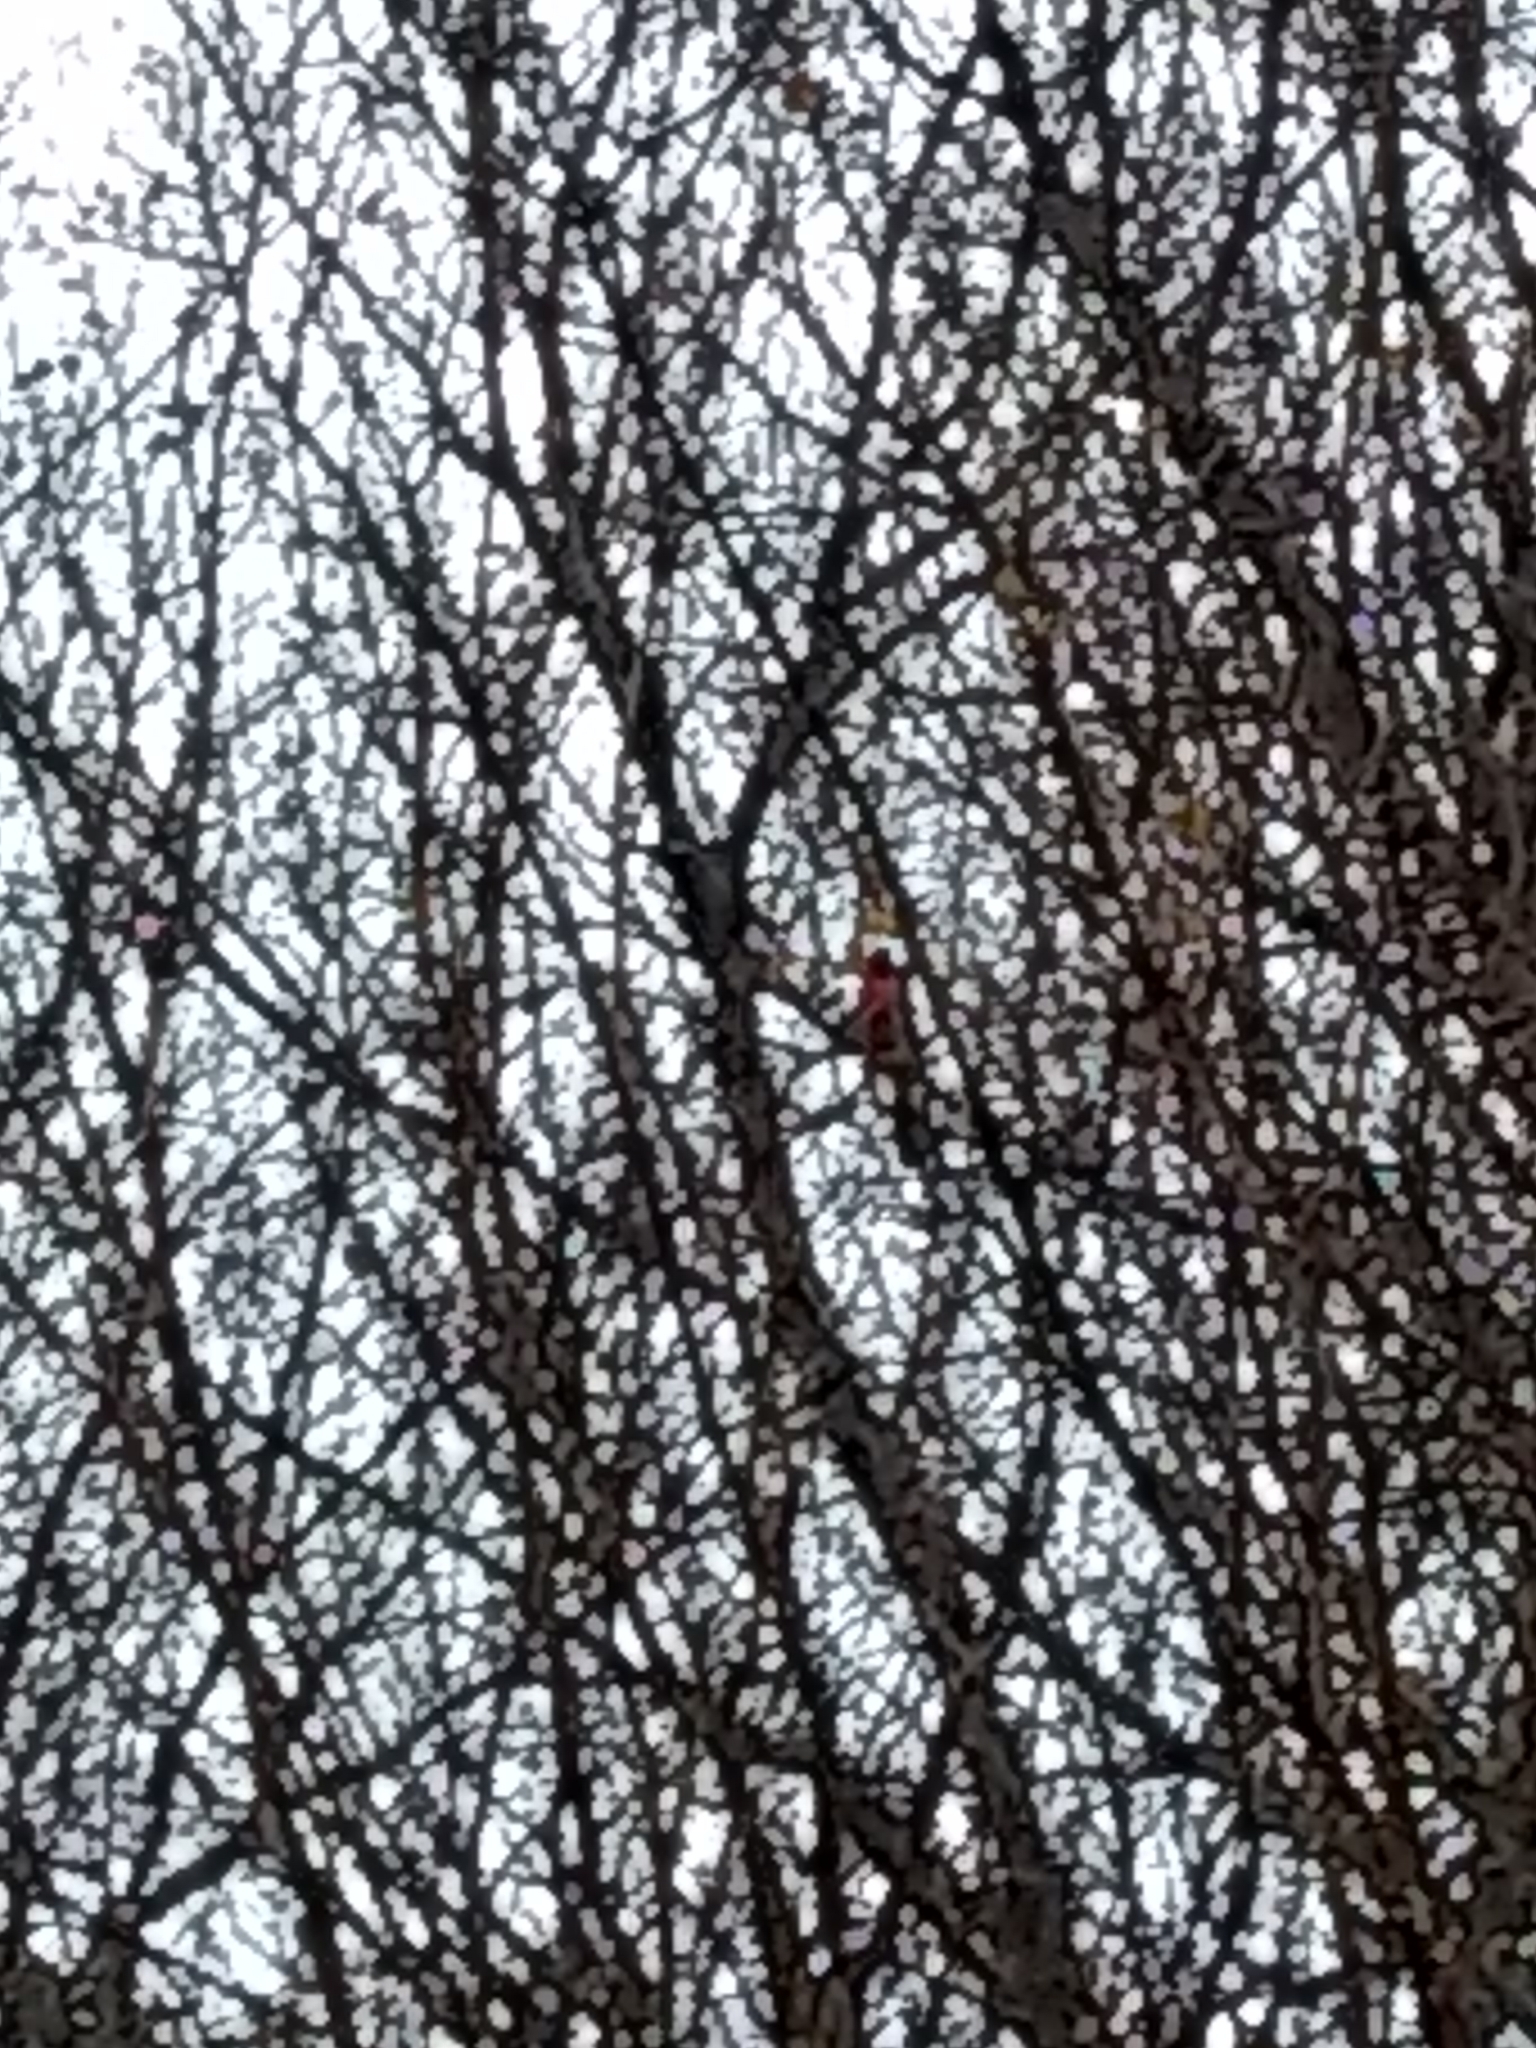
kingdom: Animalia
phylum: Chordata
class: Aves
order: Passeriformes
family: Cardinalidae
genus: Cardinalis
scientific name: Cardinalis cardinalis
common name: Northern cardinal
